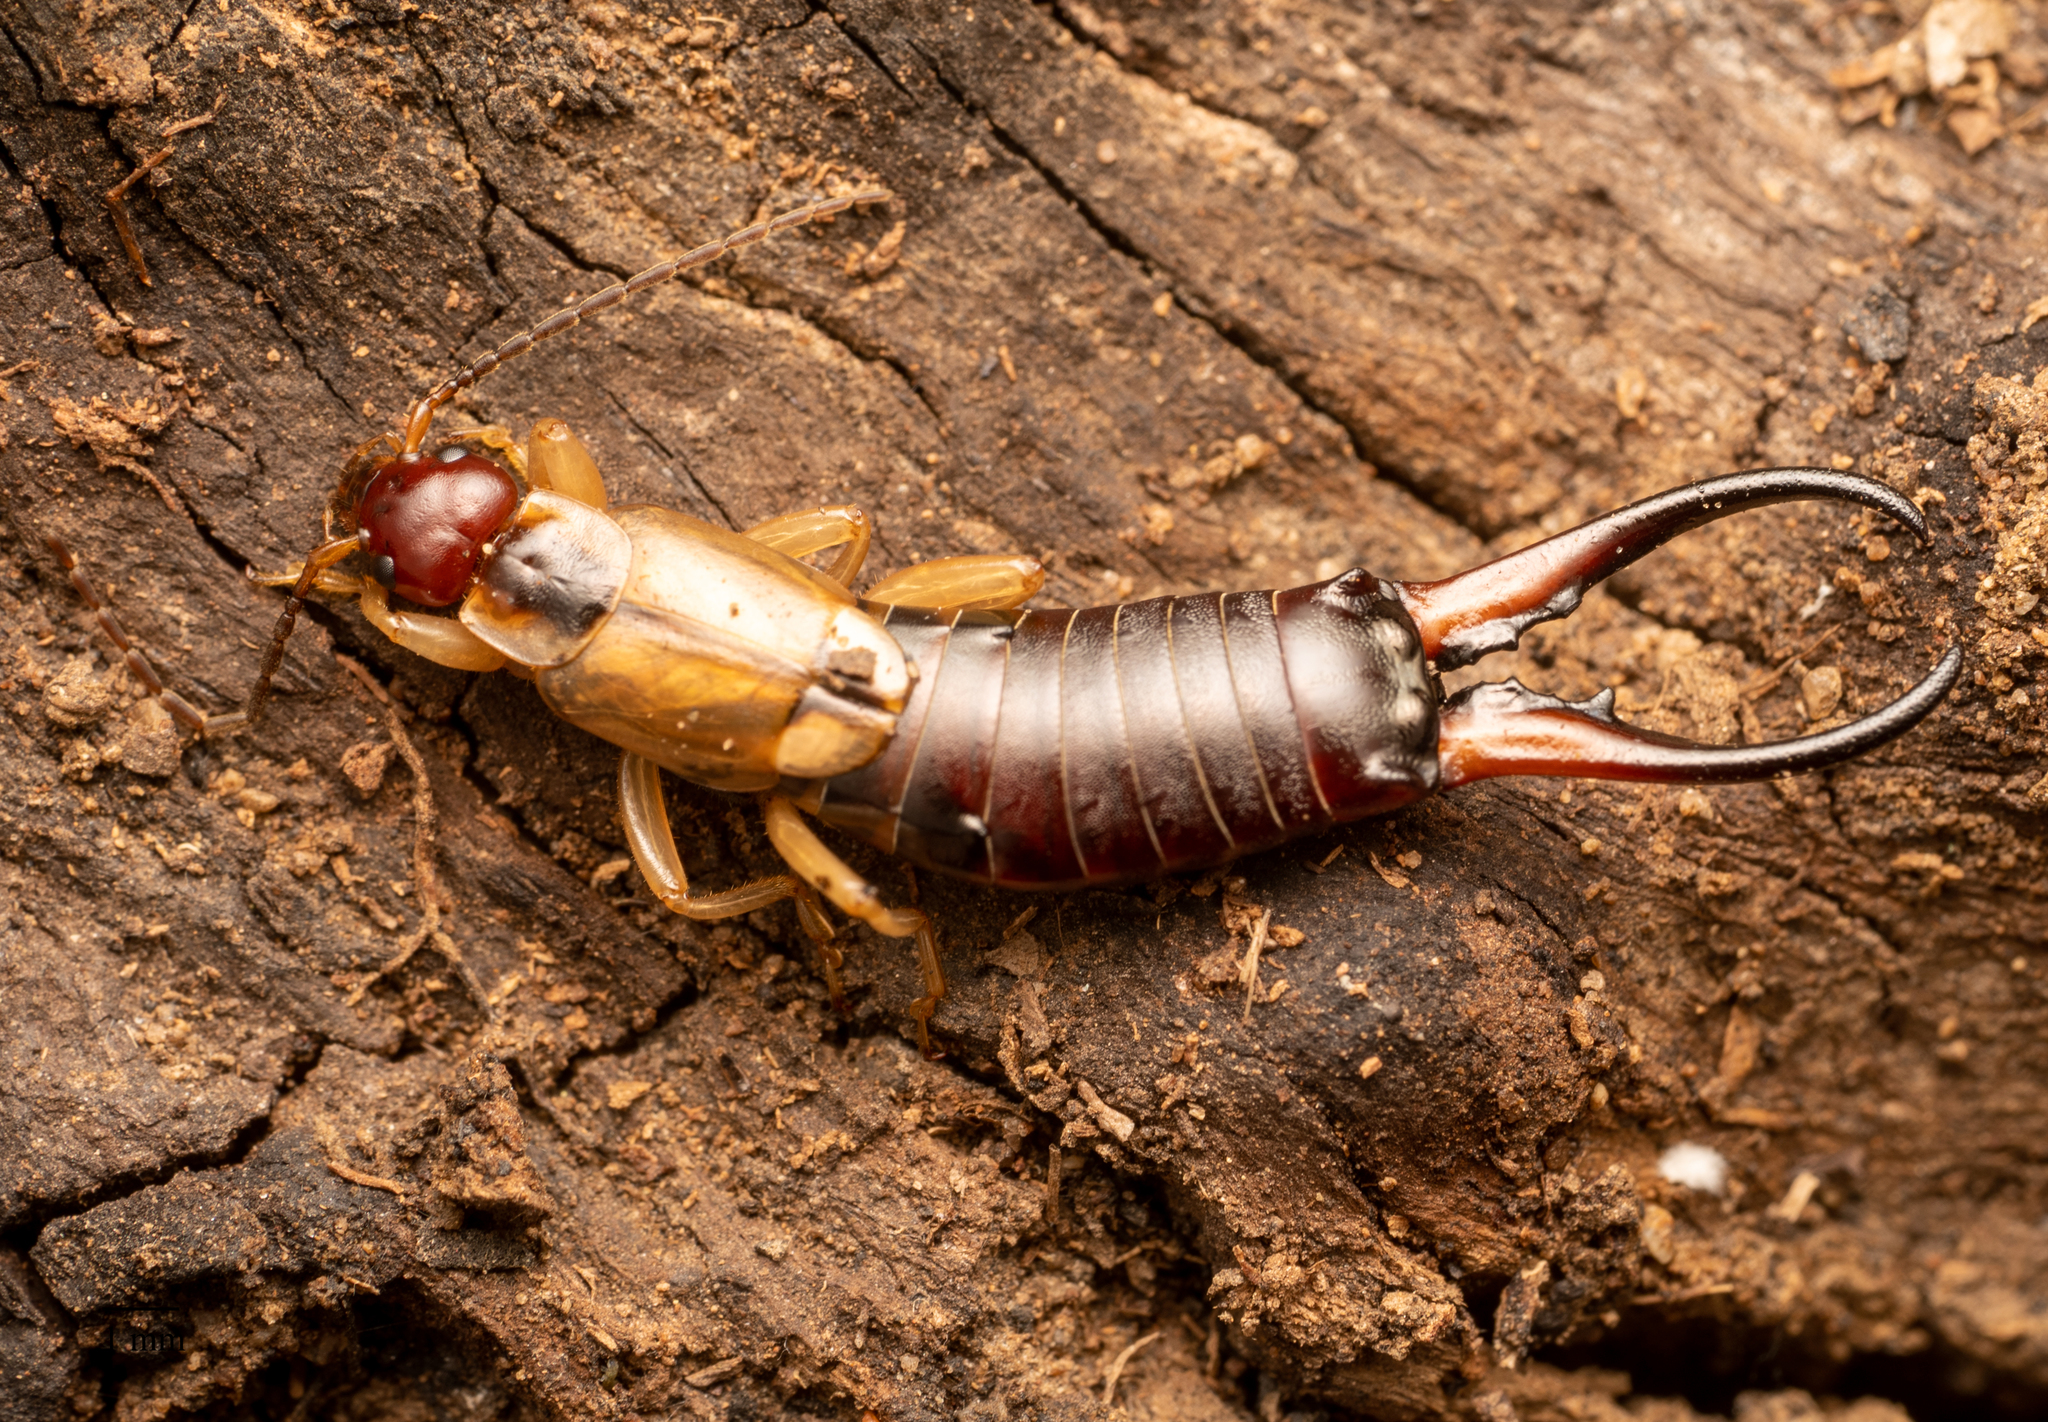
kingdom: Animalia
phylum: Arthropoda
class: Insecta
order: Dermaptera
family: Forficulidae
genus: Forficula
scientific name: Forficula
